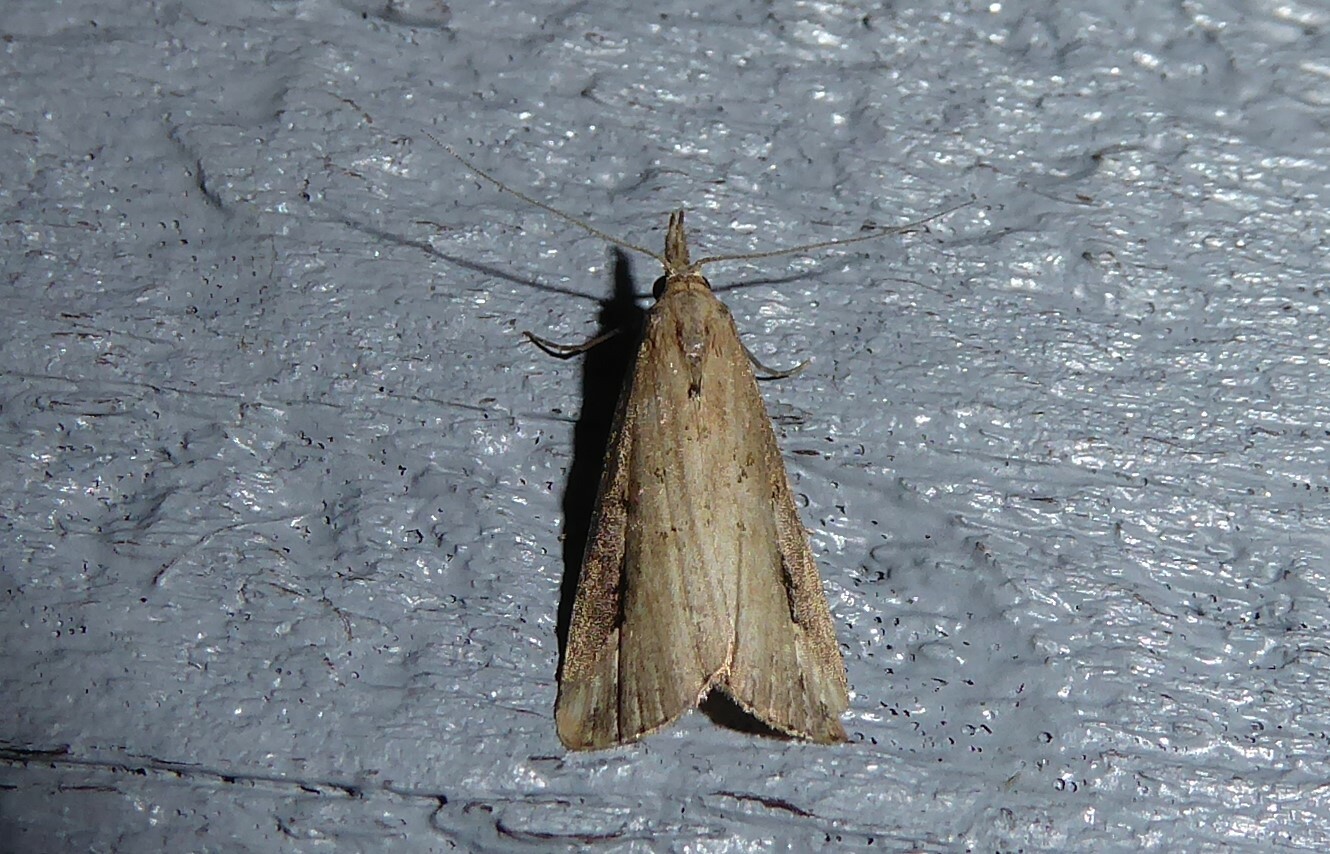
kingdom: Animalia
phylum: Arthropoda
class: Insecta
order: Lepidoptera
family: Erebidae
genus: Schrankia
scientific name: Schrankia costaestrigalis
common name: Pinion-streaked snout
